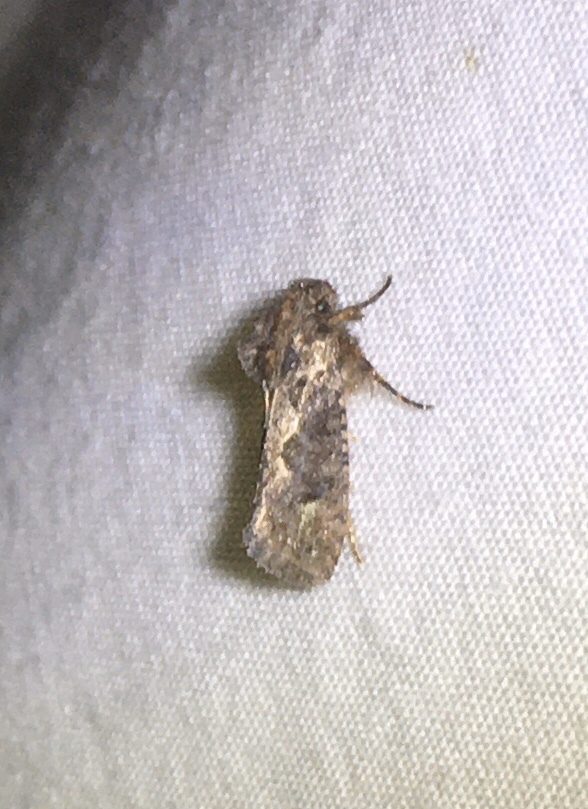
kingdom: Animalia
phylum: Arthropoda
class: Insecta
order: Lepidoptera
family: Tineidae
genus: Acrolophus
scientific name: Acrolophus walsinghami
